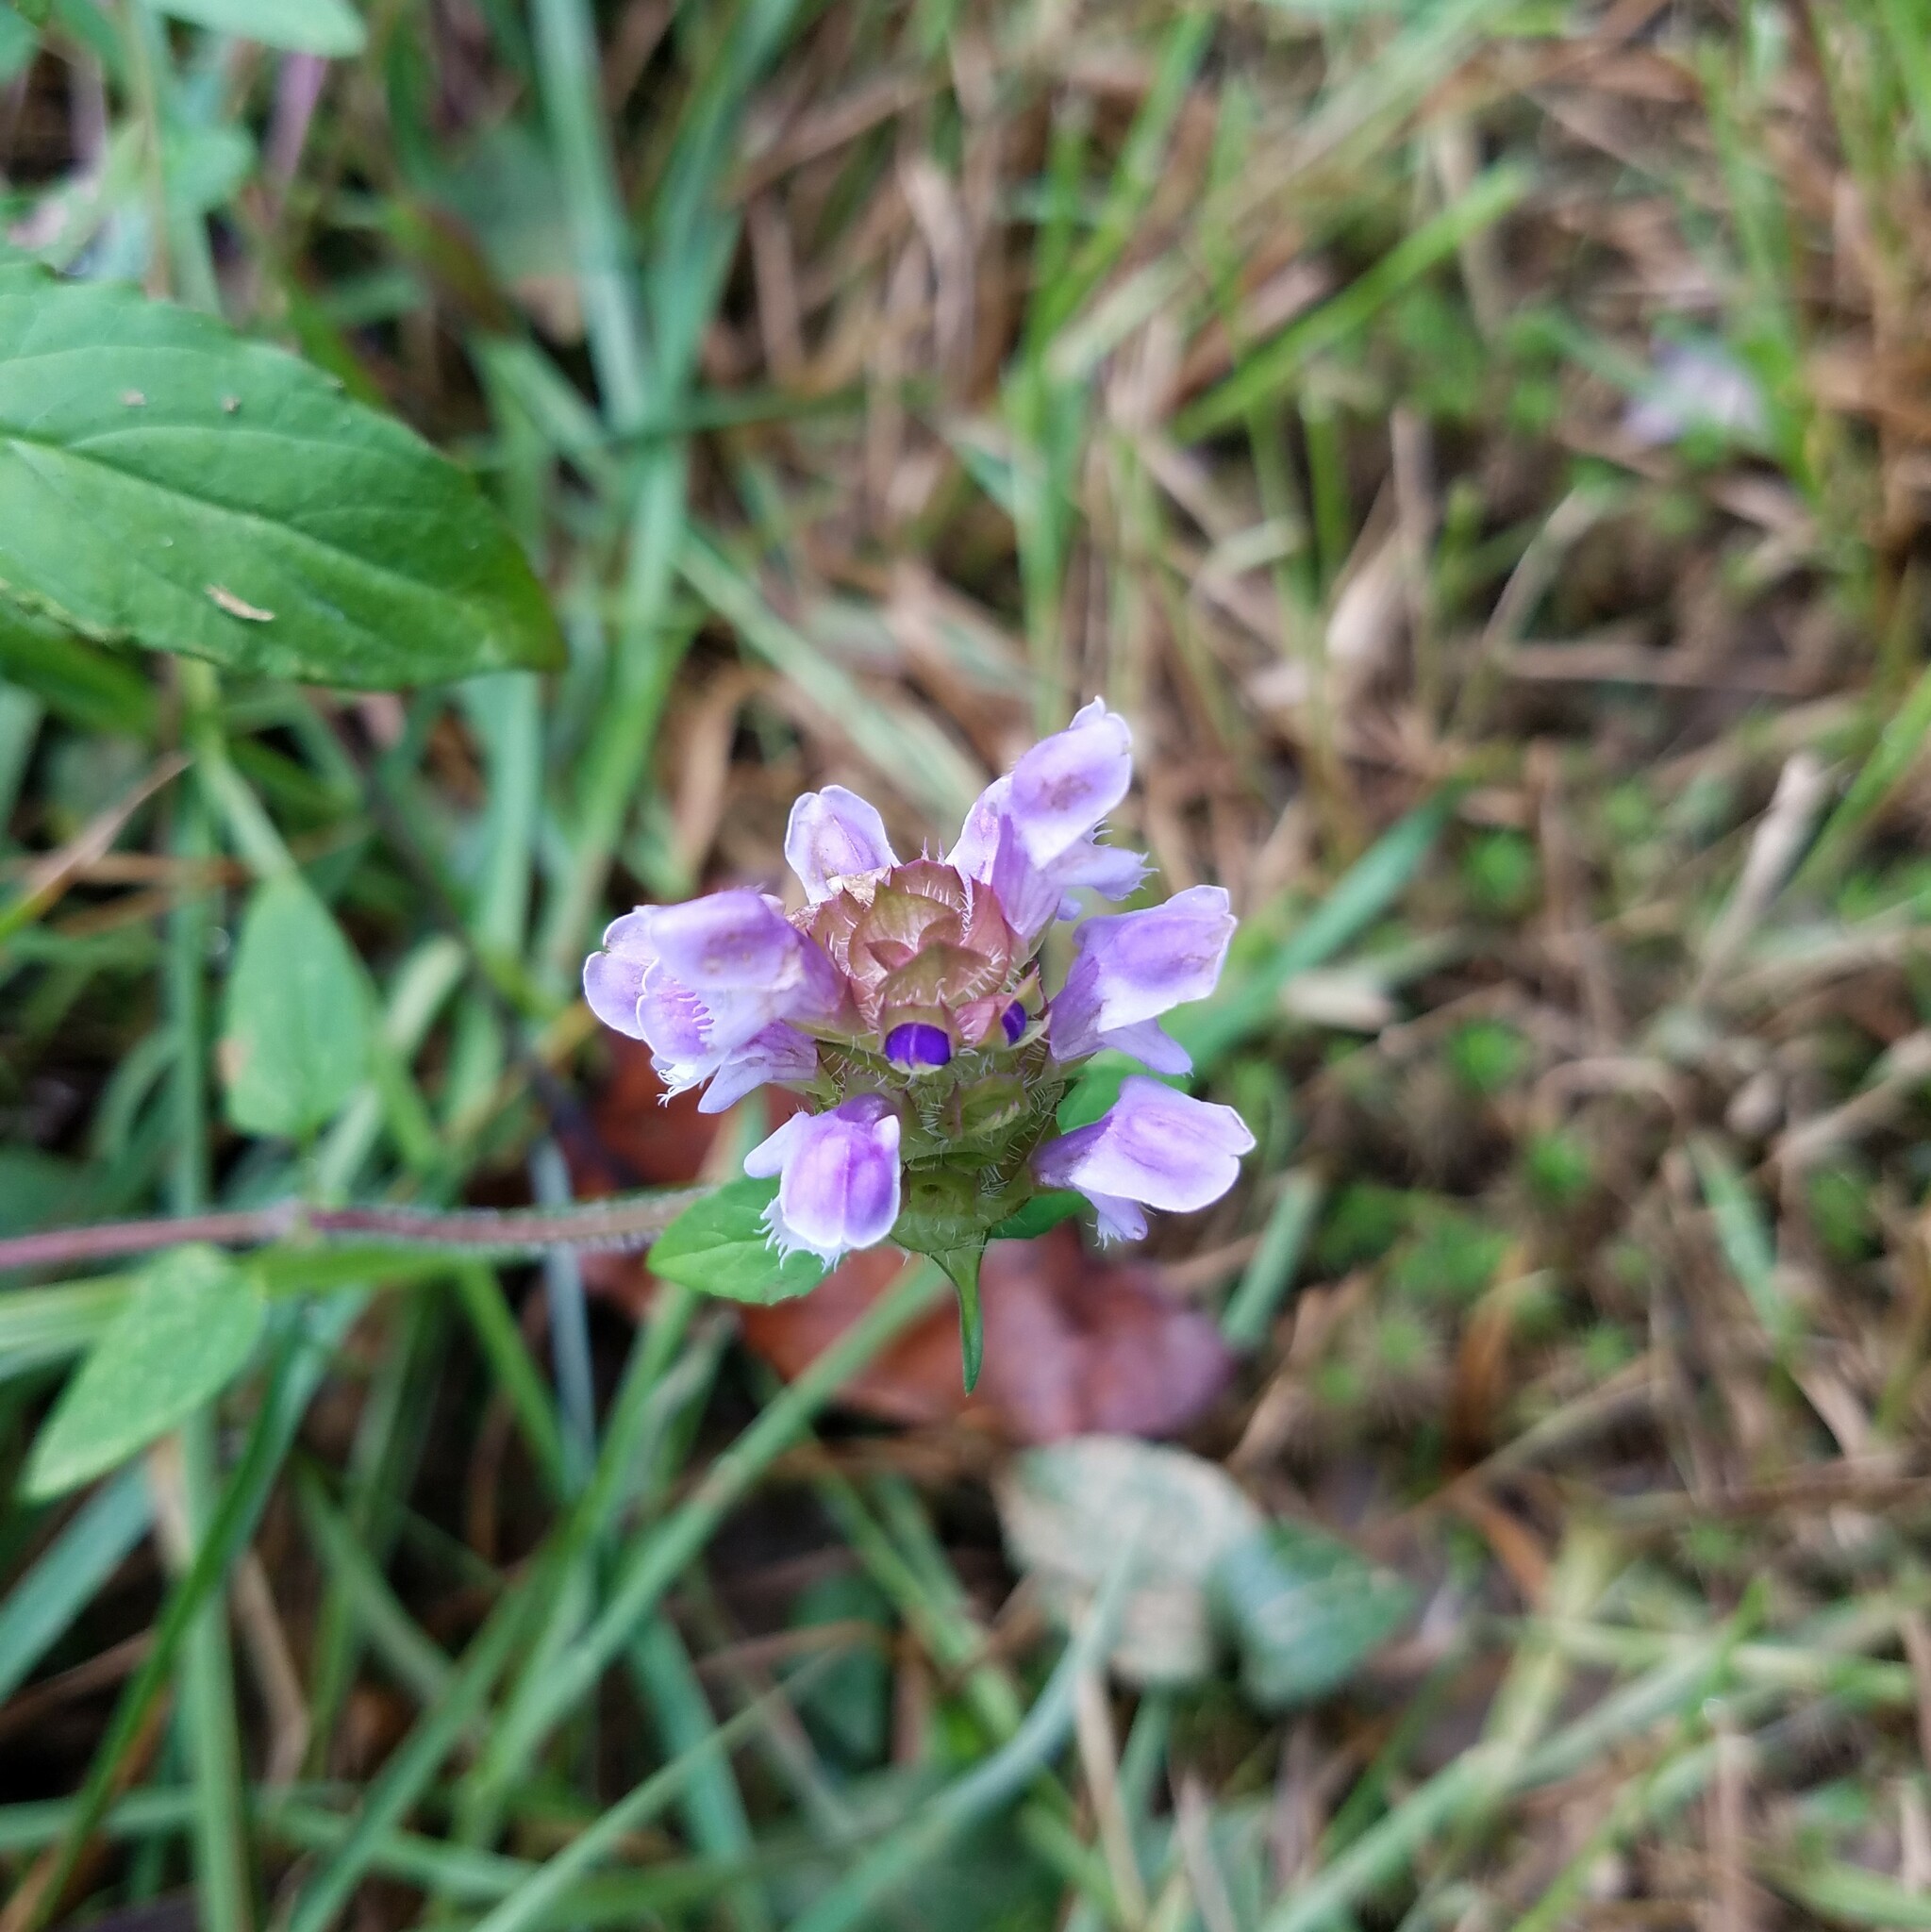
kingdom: Plantae
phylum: Tracheophyta
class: Magnoliopsida
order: Lamiales
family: Lamiaceae
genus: Prunella
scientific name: Prunella vulgaris
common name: Heal-all
